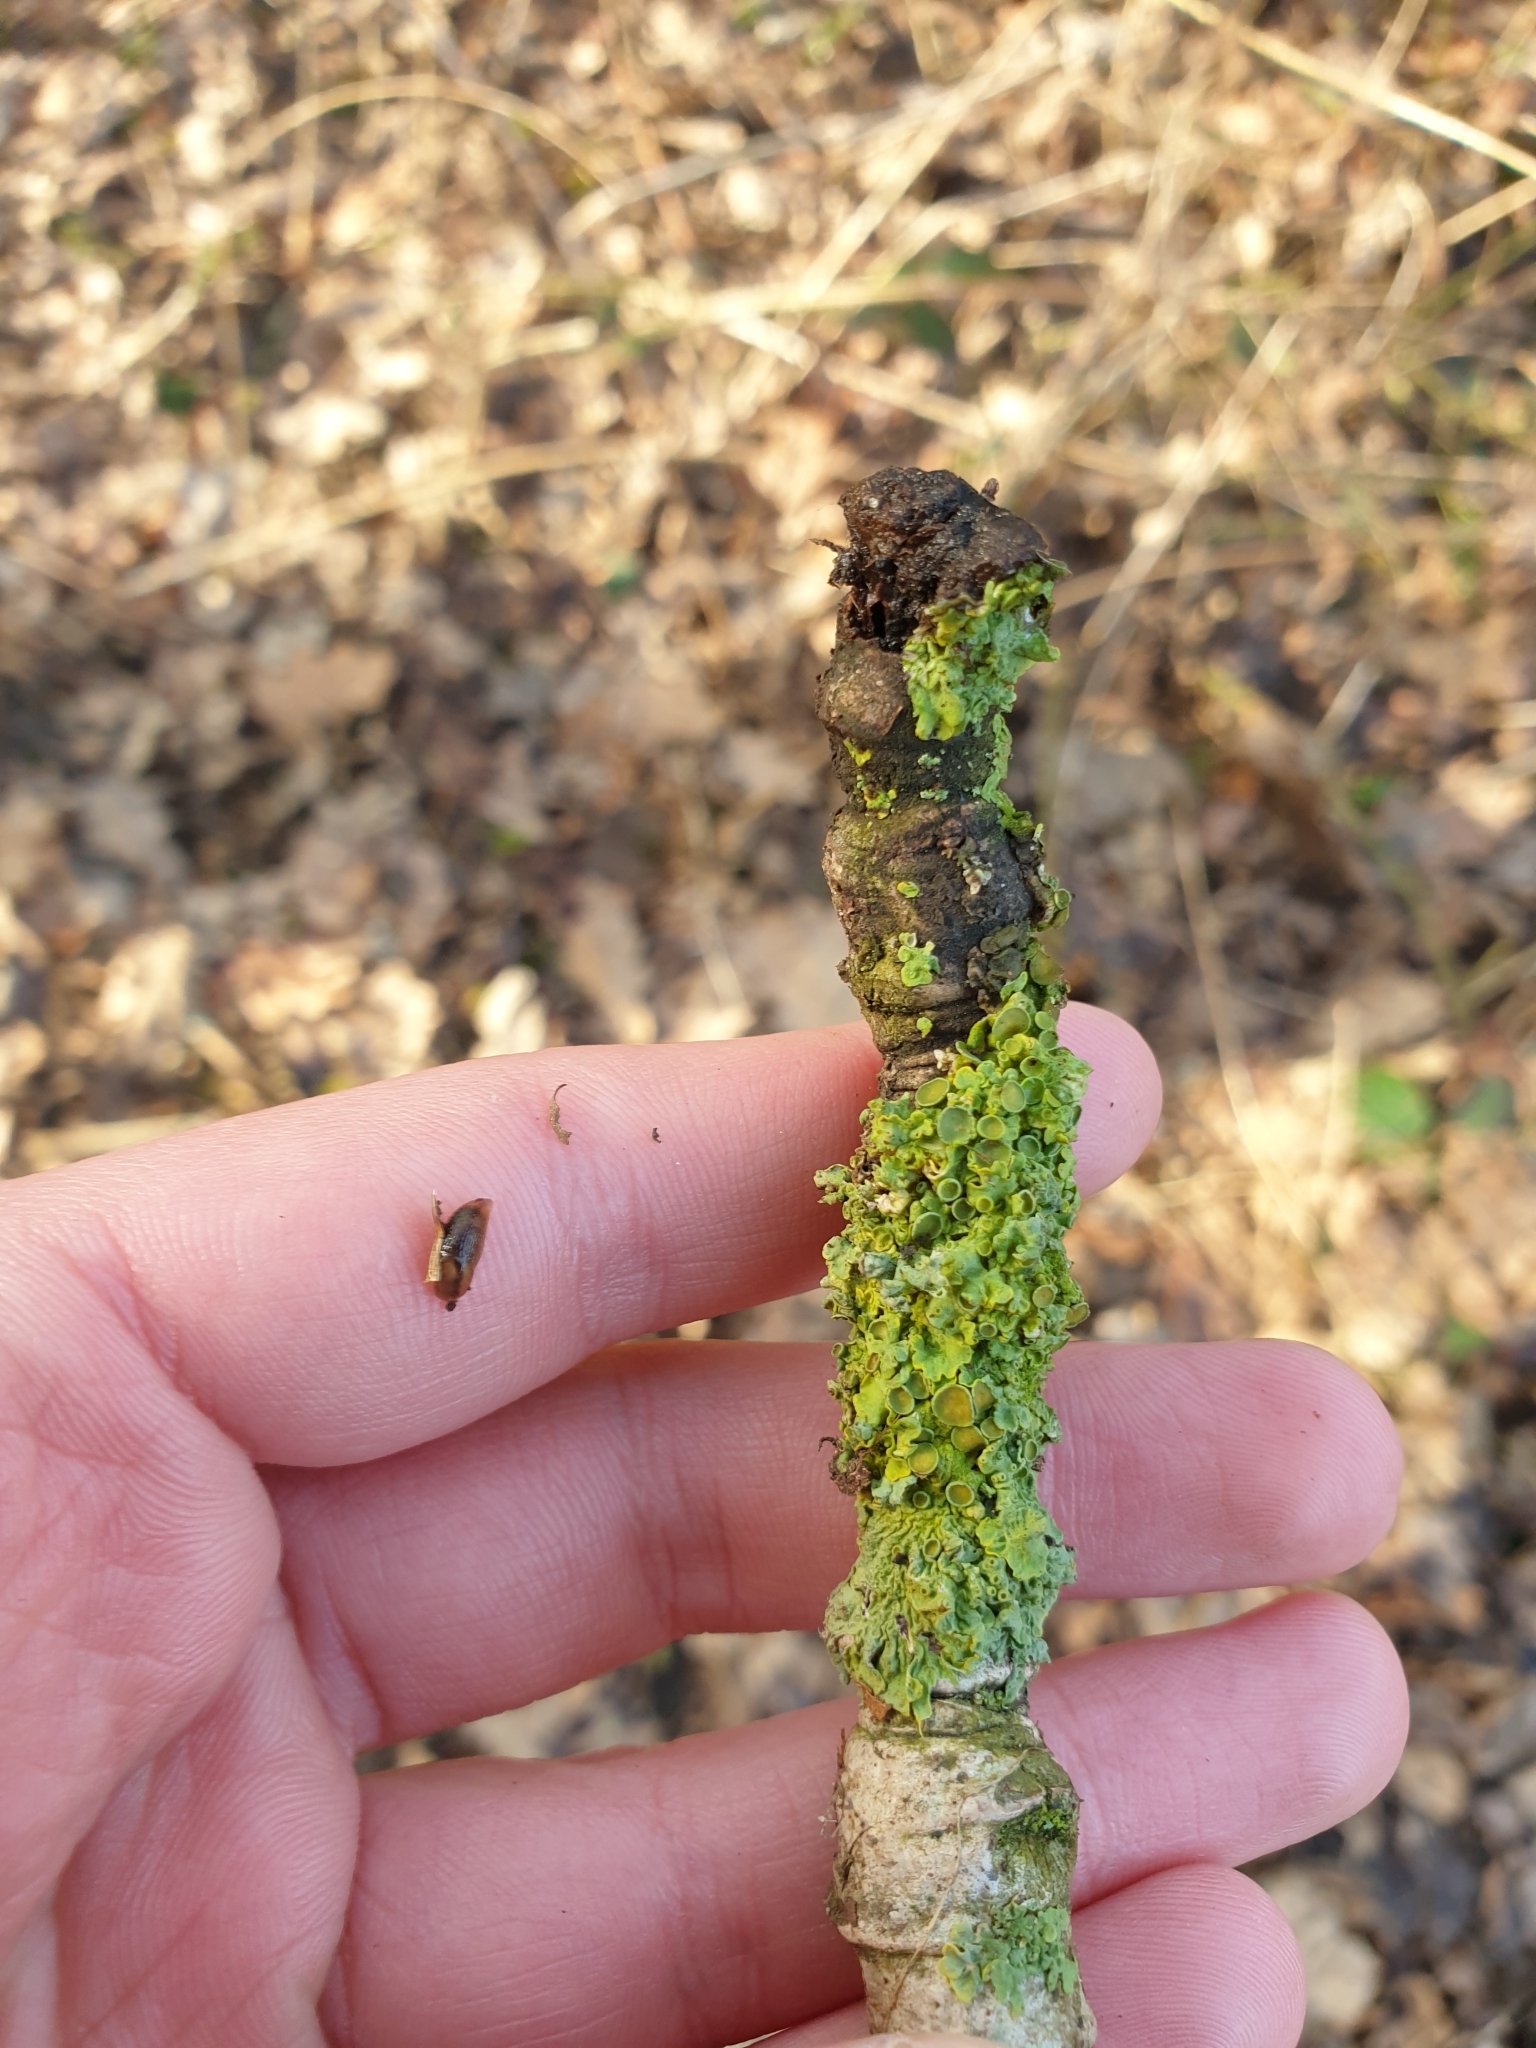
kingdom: Fungi
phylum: Ascomycota
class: Lecanoromycetes
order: Teloschistales
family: Teloschistaceae
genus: Xanthoria
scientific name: Xanthoria parietina
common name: Common orange lichen
